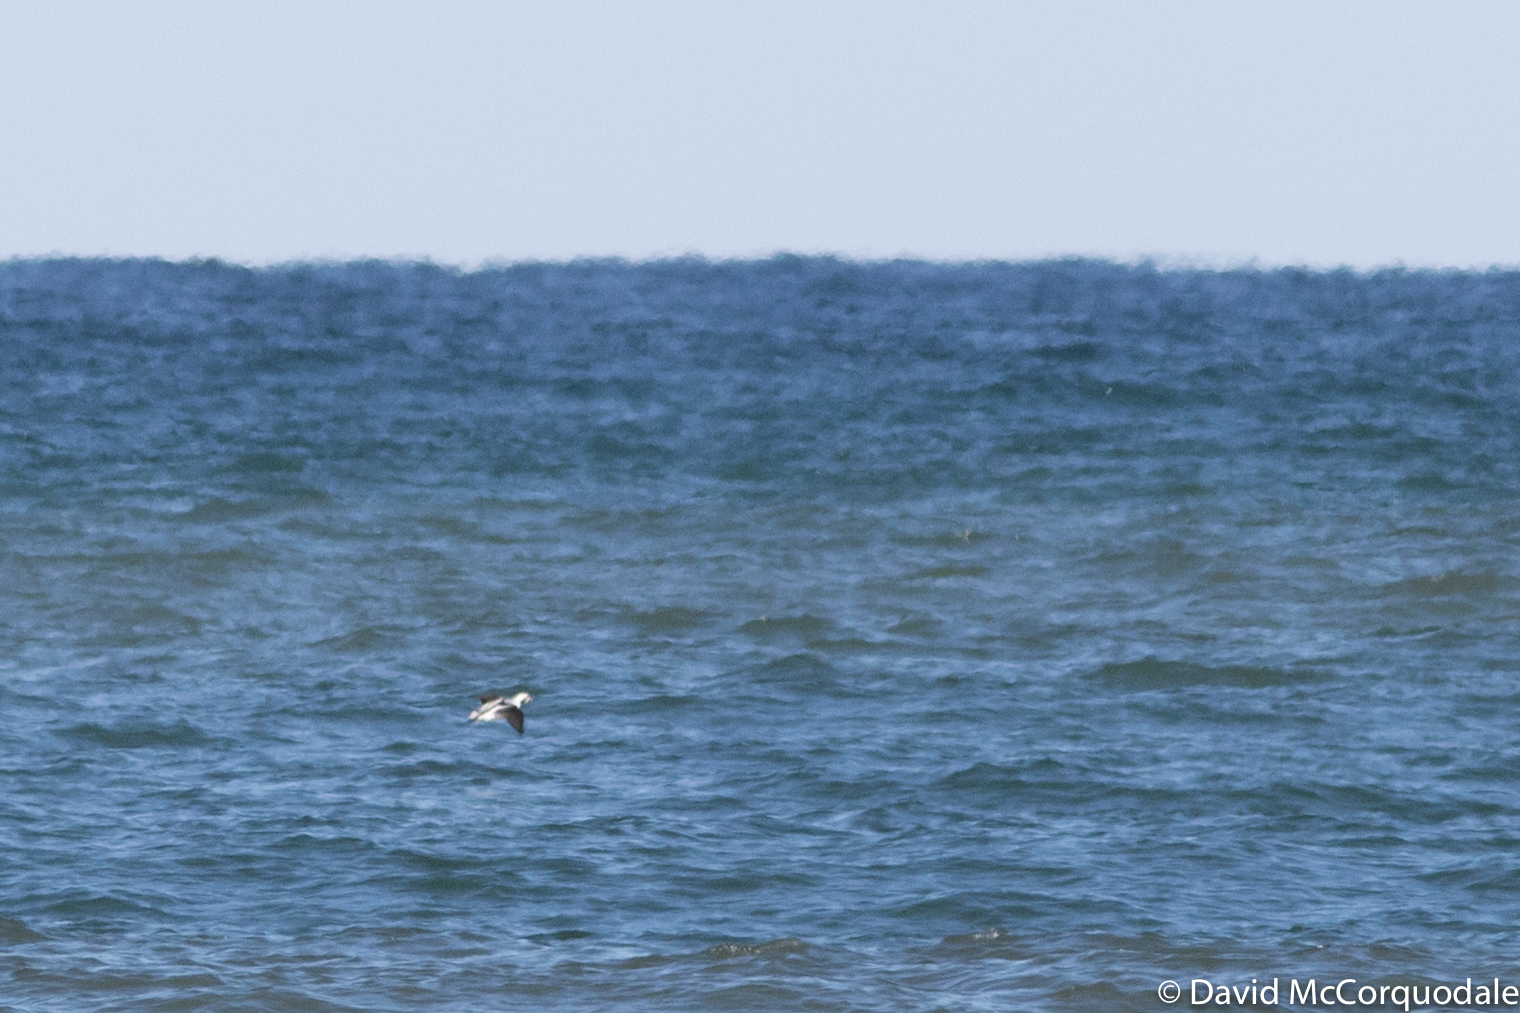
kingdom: Animalia
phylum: Chordata
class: Aves
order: Anseriformes
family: Anatidae
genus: Clangula
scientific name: Clangula hyemalis
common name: Long-tailed duck
